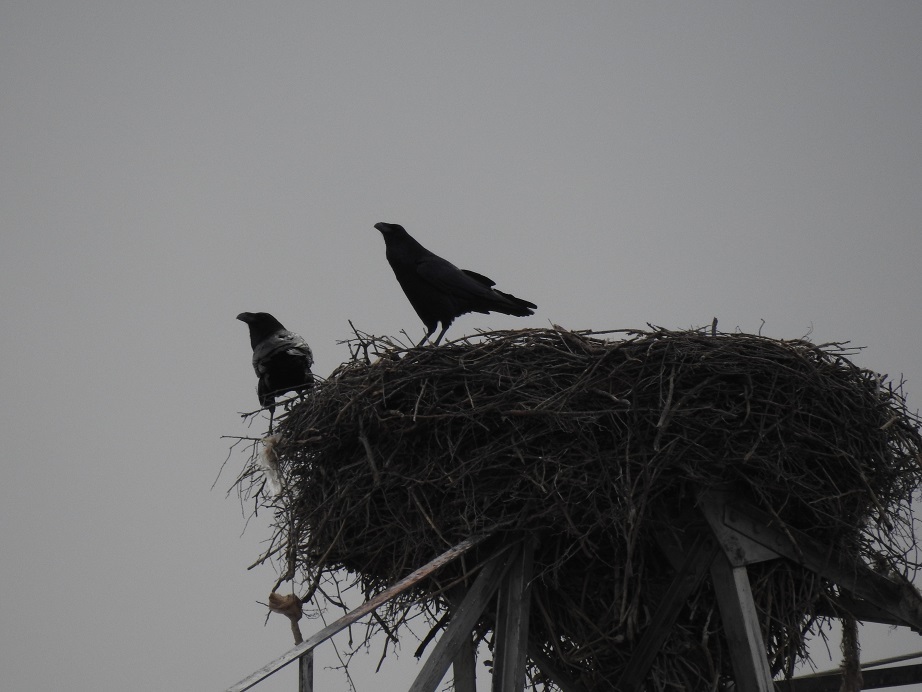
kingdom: Animalia
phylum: Chordata
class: Aves
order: Passeriformes
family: Corvidae
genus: Corvus
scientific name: Corvus corax
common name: Common raven
